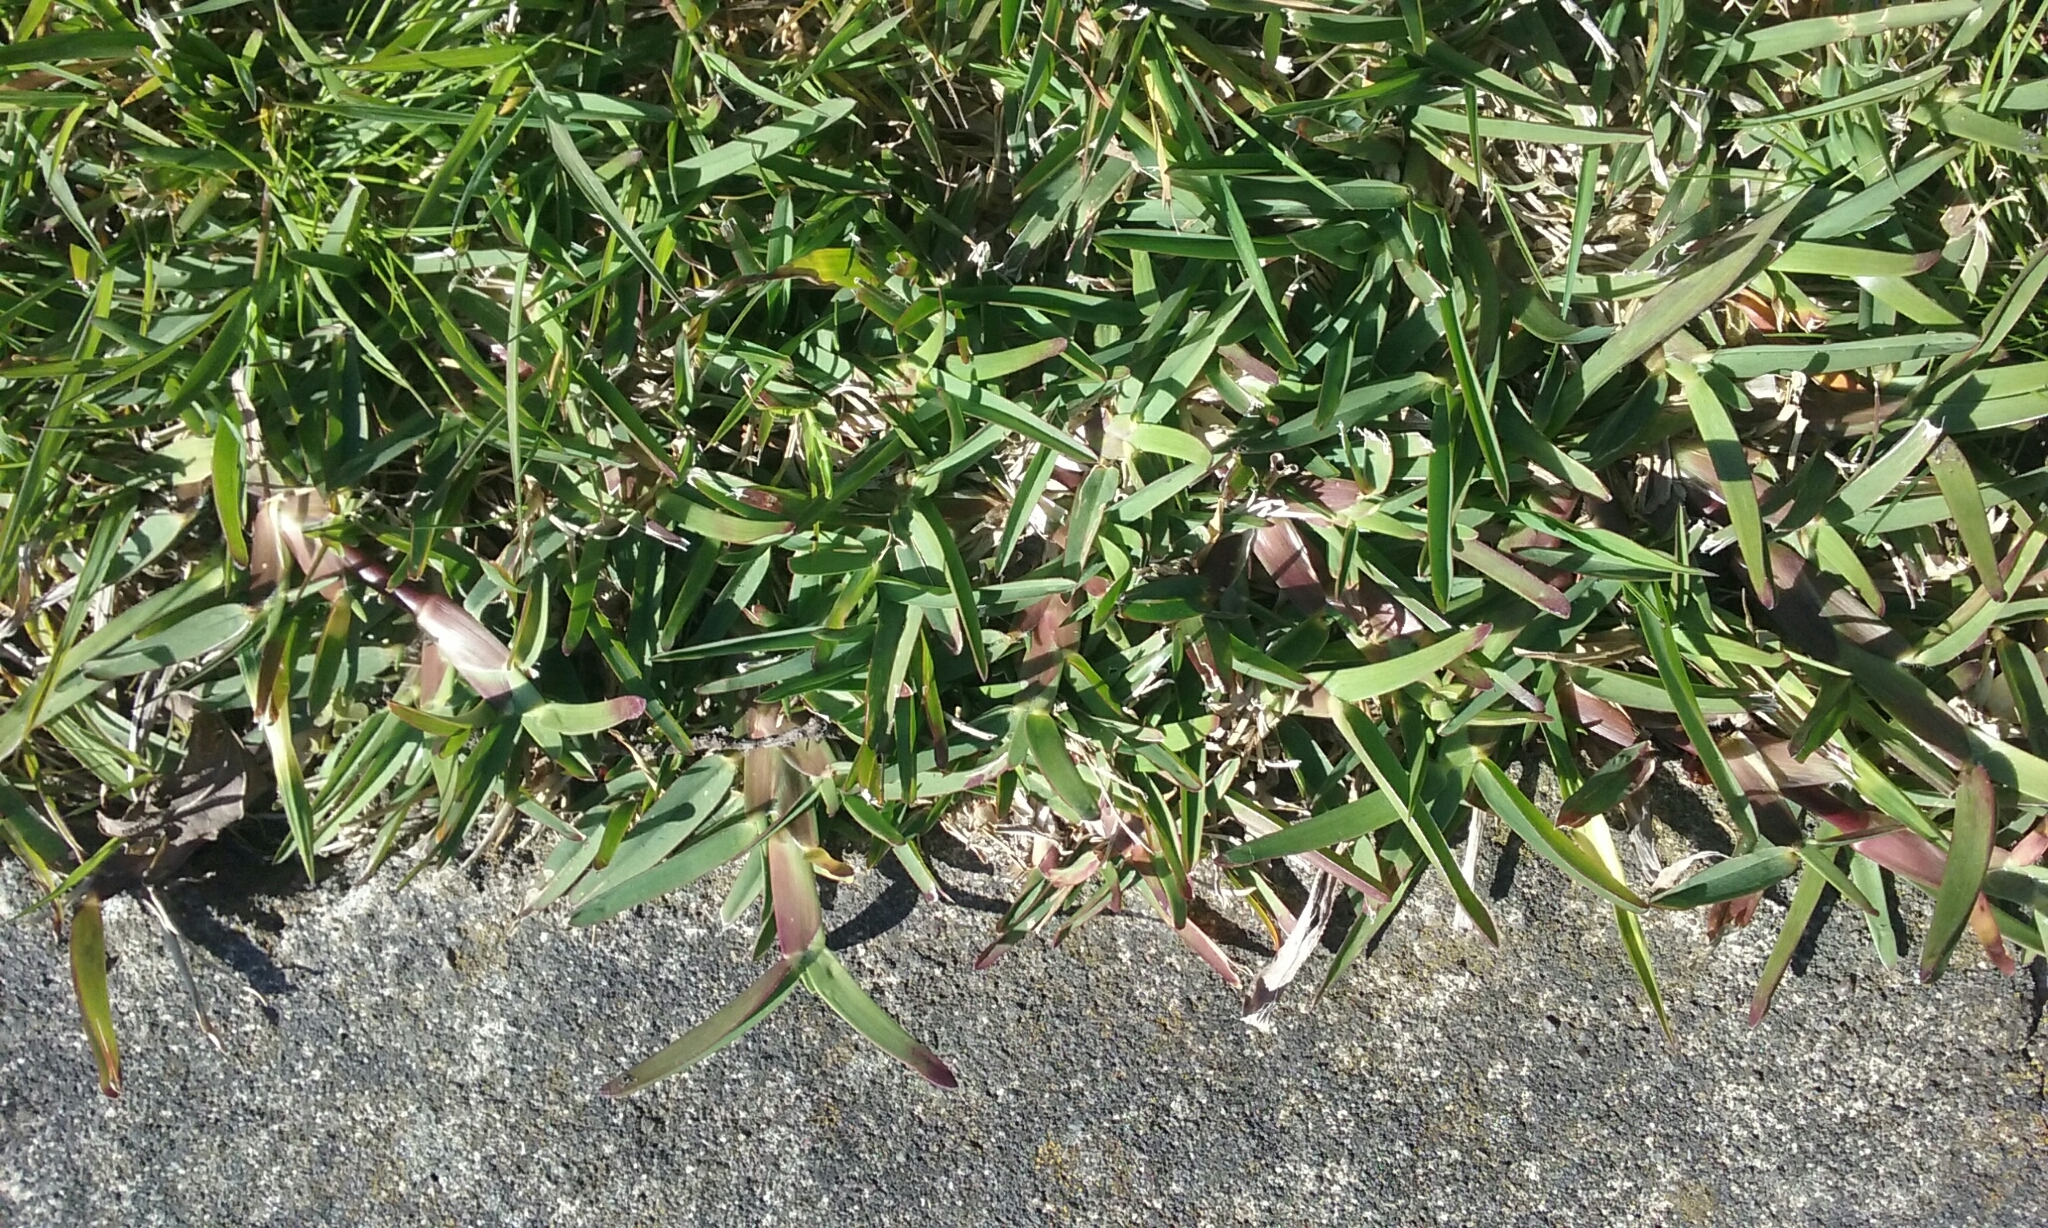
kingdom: Plantae
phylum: Tracheophyta
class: Liliopsida
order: Poales
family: Poaceae
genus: Cenchrus
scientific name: Cenchrus clandestinus
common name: Kikuyugrass
